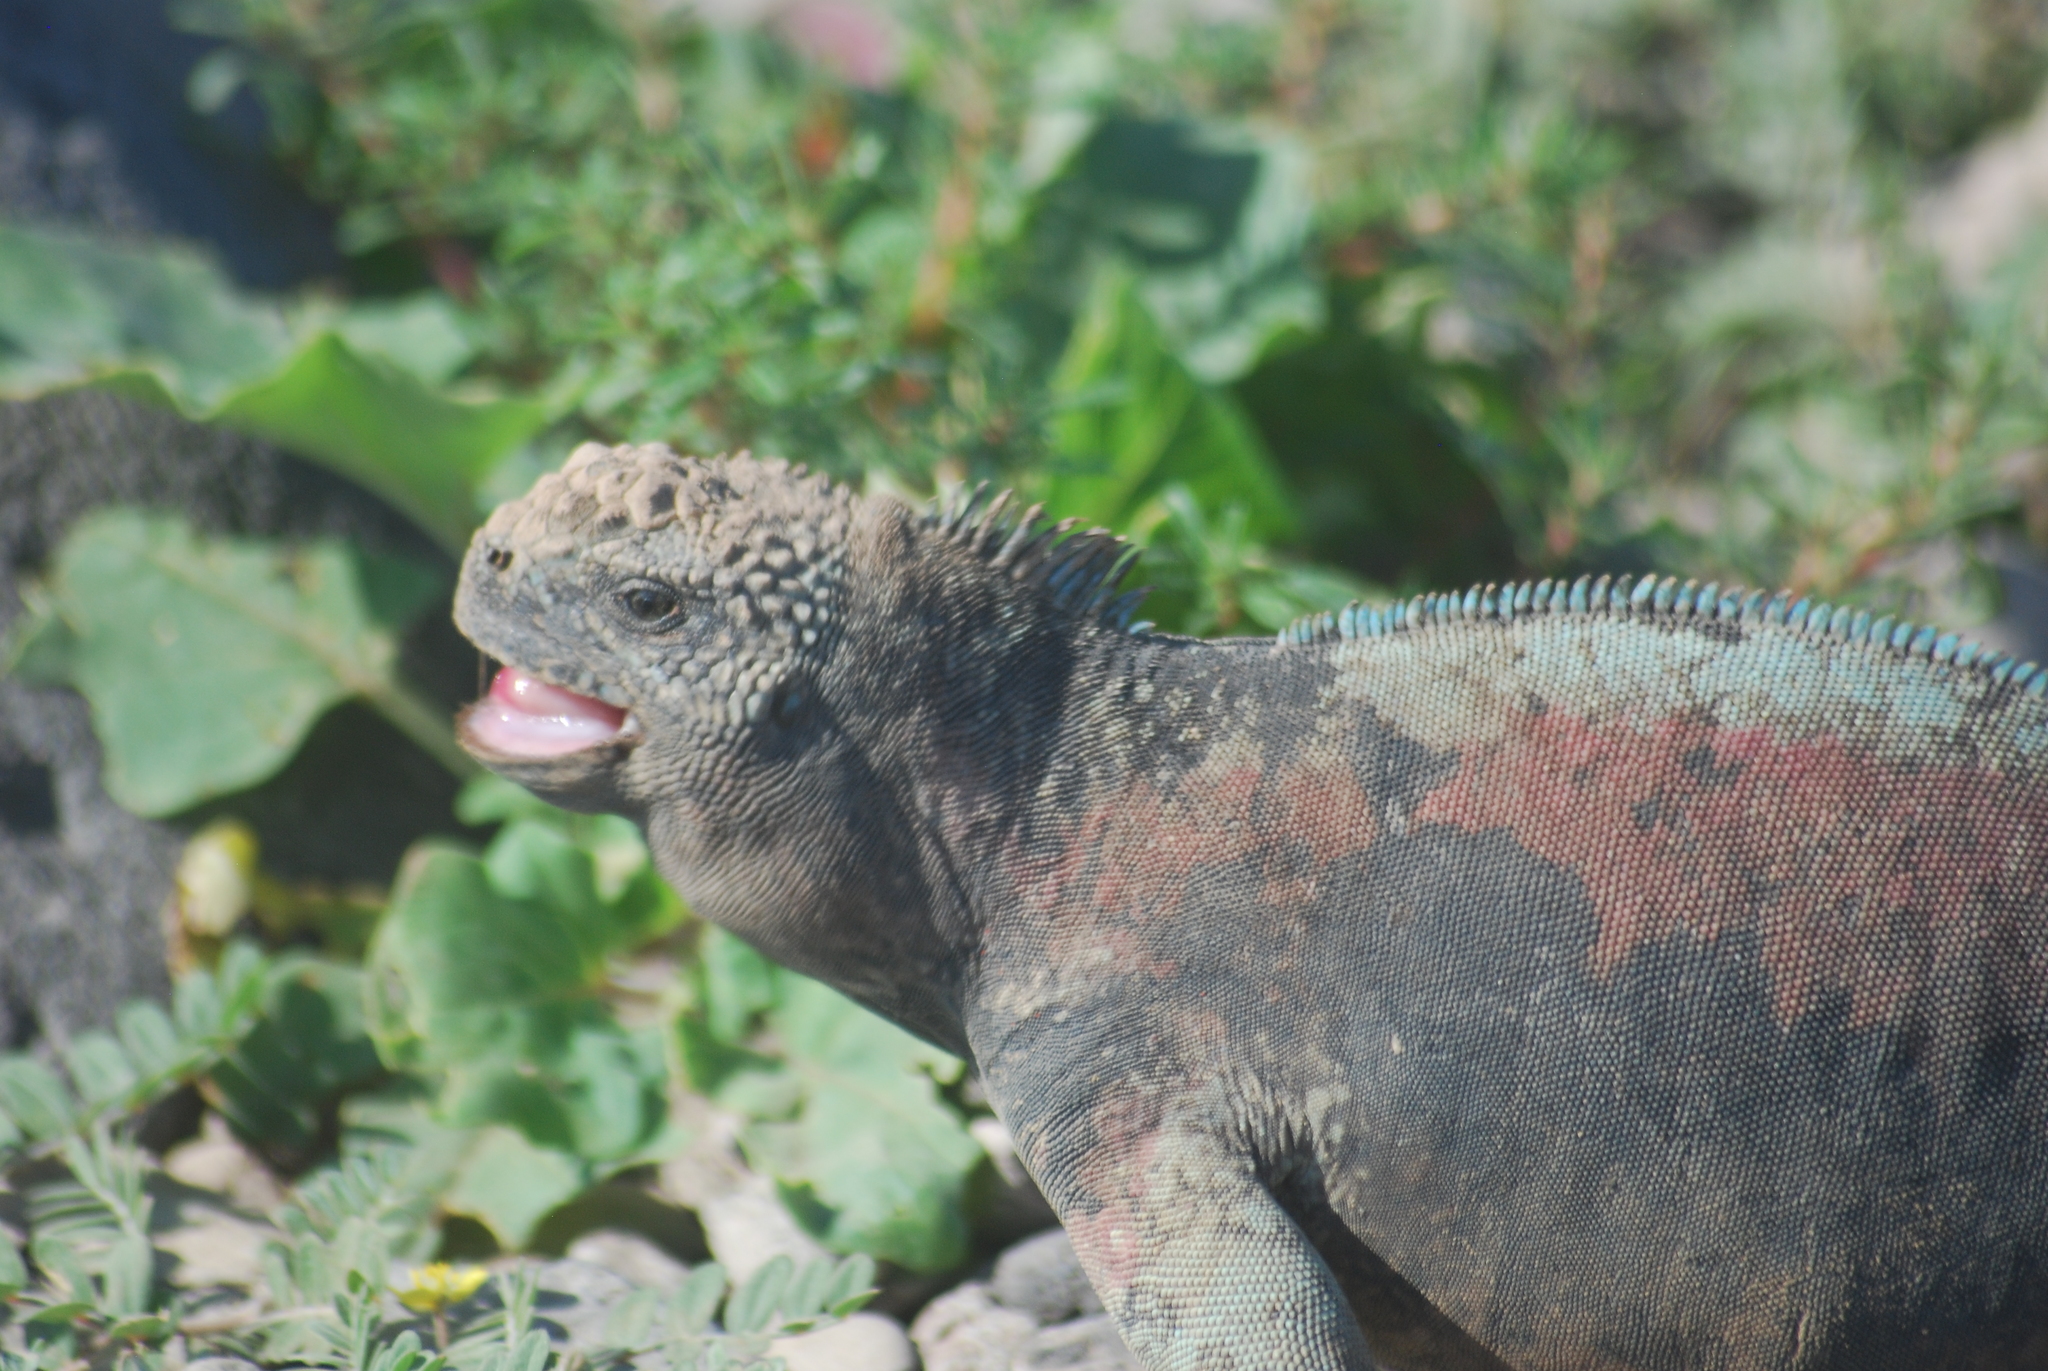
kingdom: Animalia
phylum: Chordata
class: Squamata
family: Iguanidae
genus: Amblyrhynchus
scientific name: Amblyrhynchus cristatus
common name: Marine iguana
